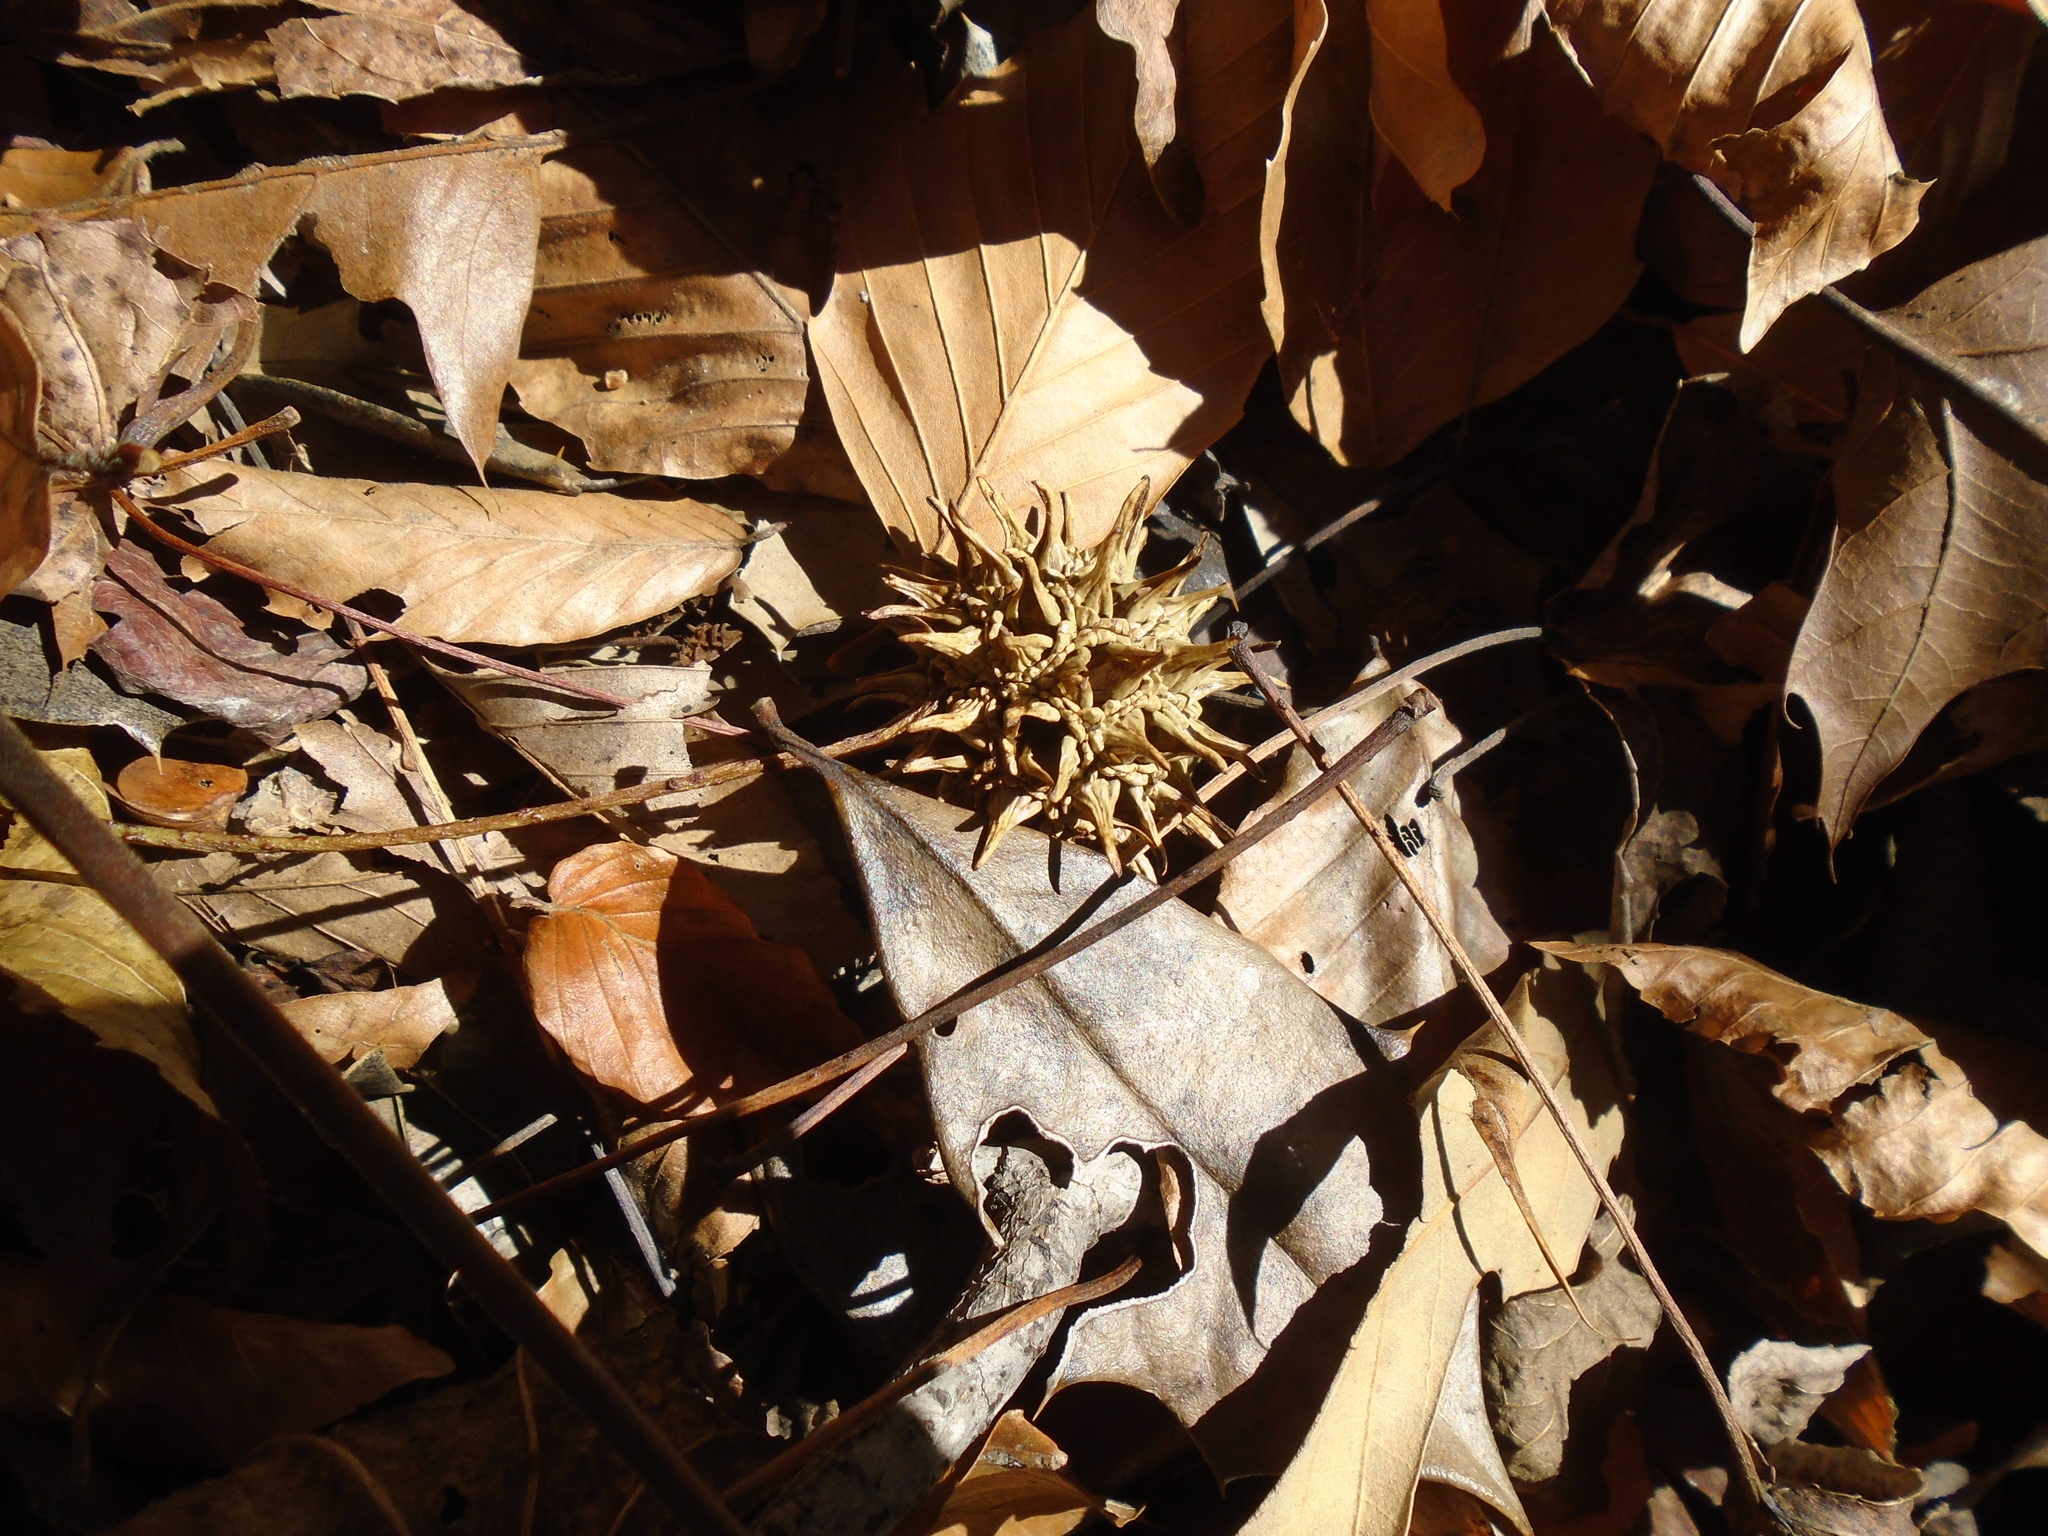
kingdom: Plantae
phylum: Tracheophyta
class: Magnoliopsida
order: Saxifragales
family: Altingiaceae
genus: Liquidambar
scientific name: Liquidambar styraciflua
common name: Sweet gum
